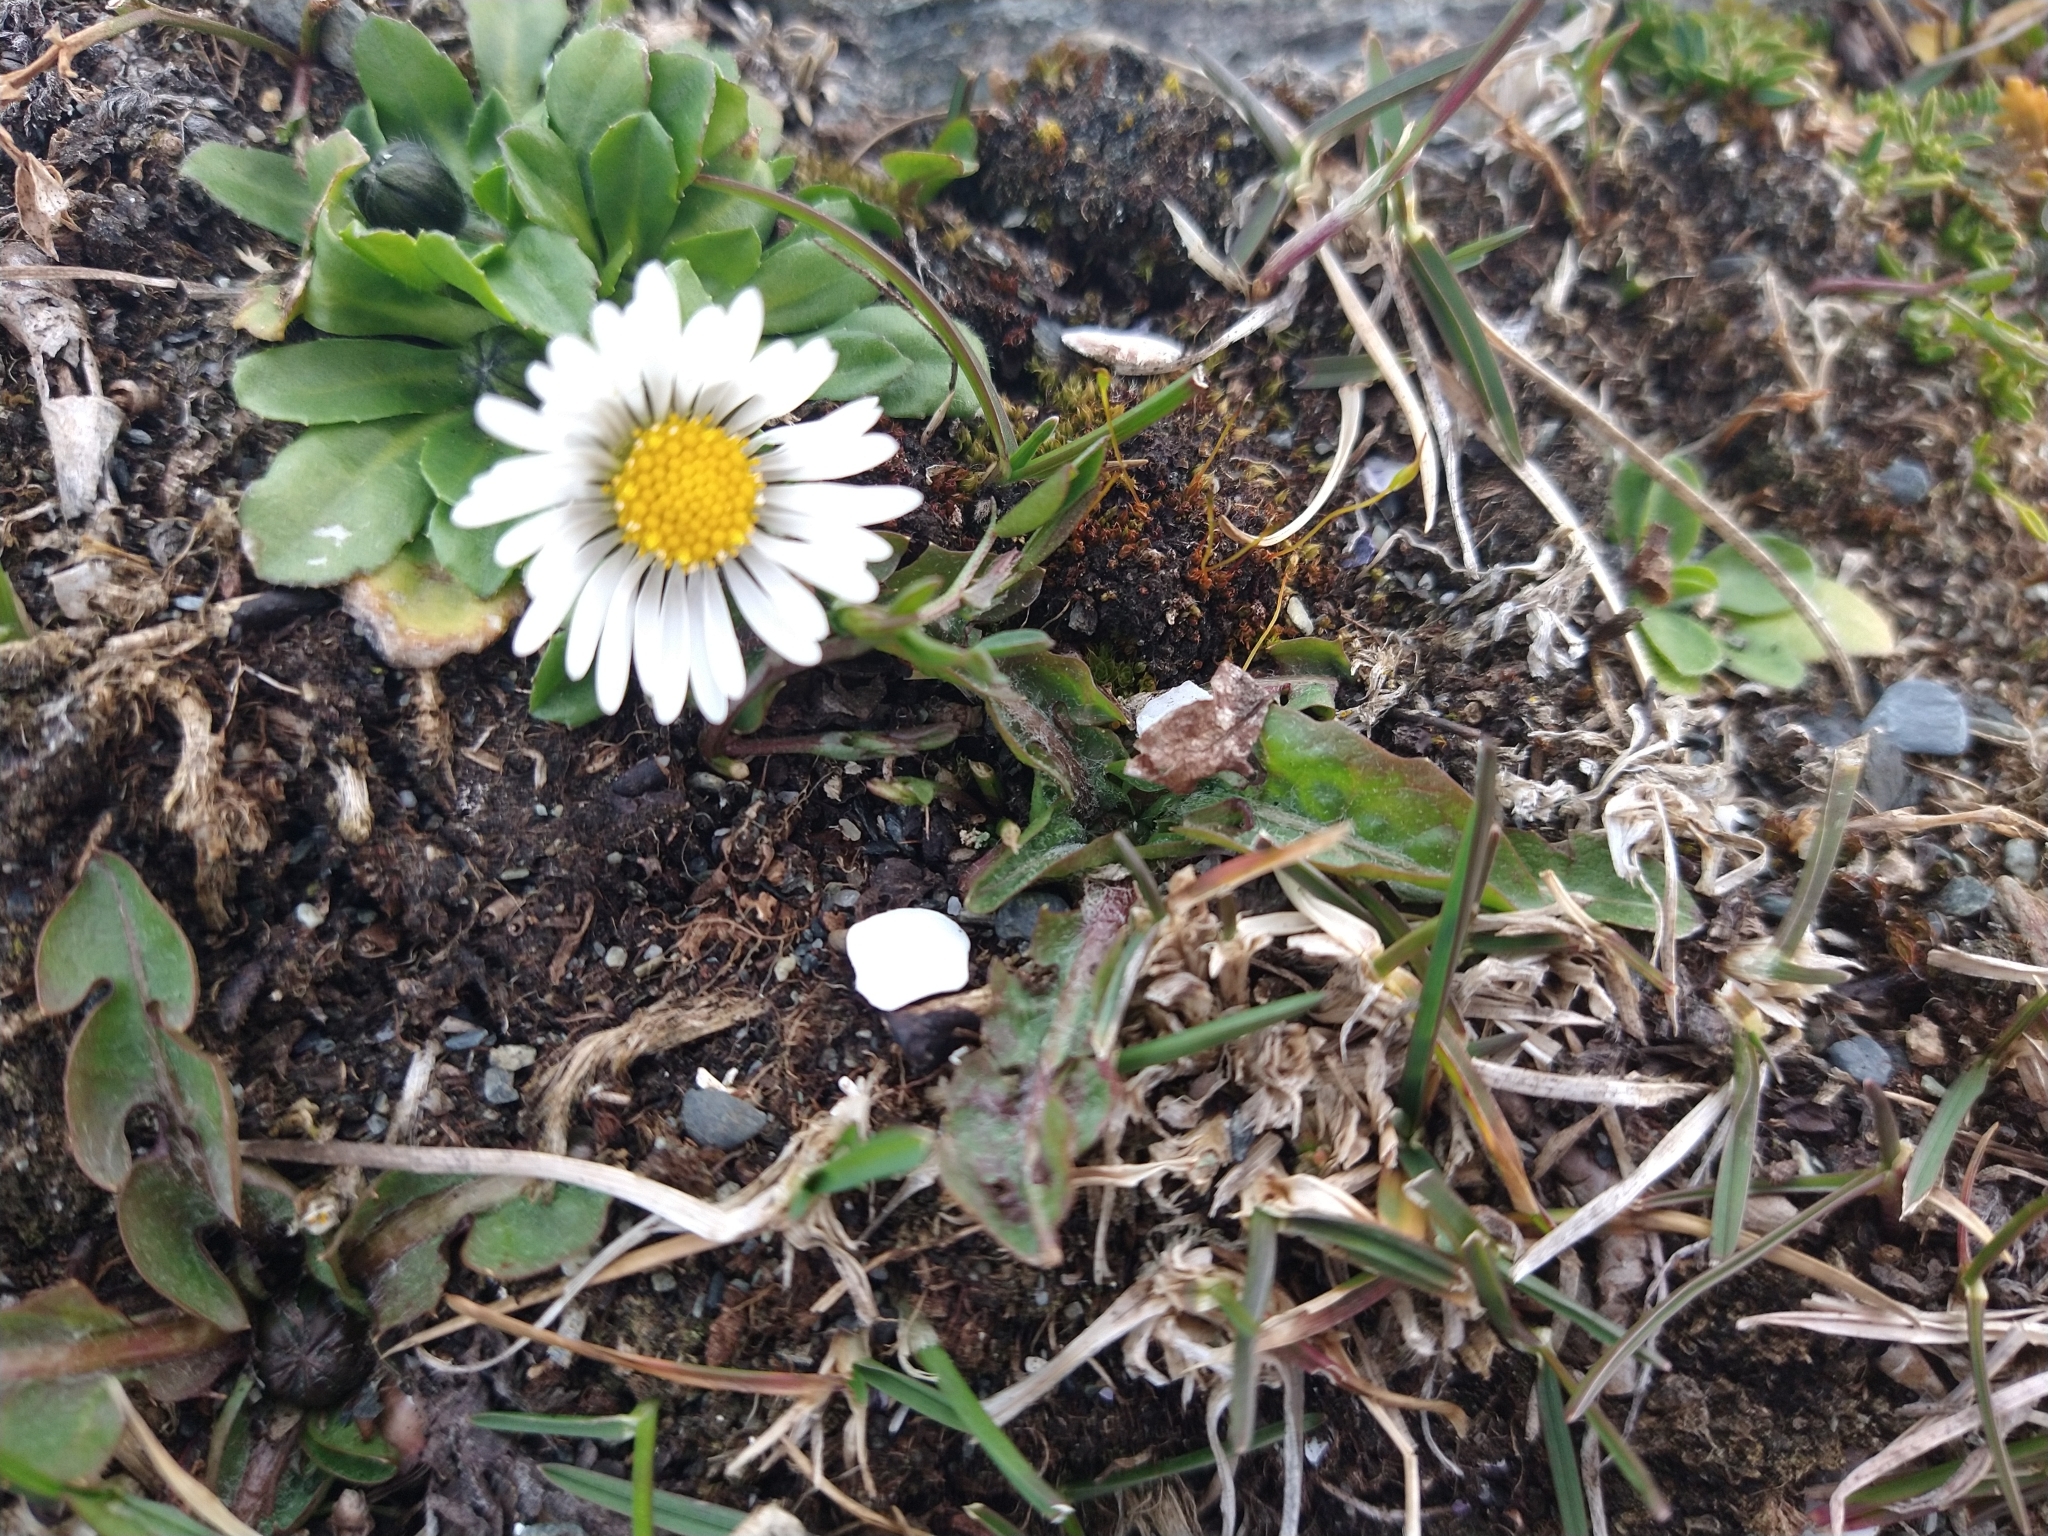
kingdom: Plantae
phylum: Tracheophyta
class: Magnoliopsida
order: Asterales
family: Asteraceae
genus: Bellis
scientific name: Bellis perennis
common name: Lawndaisy
